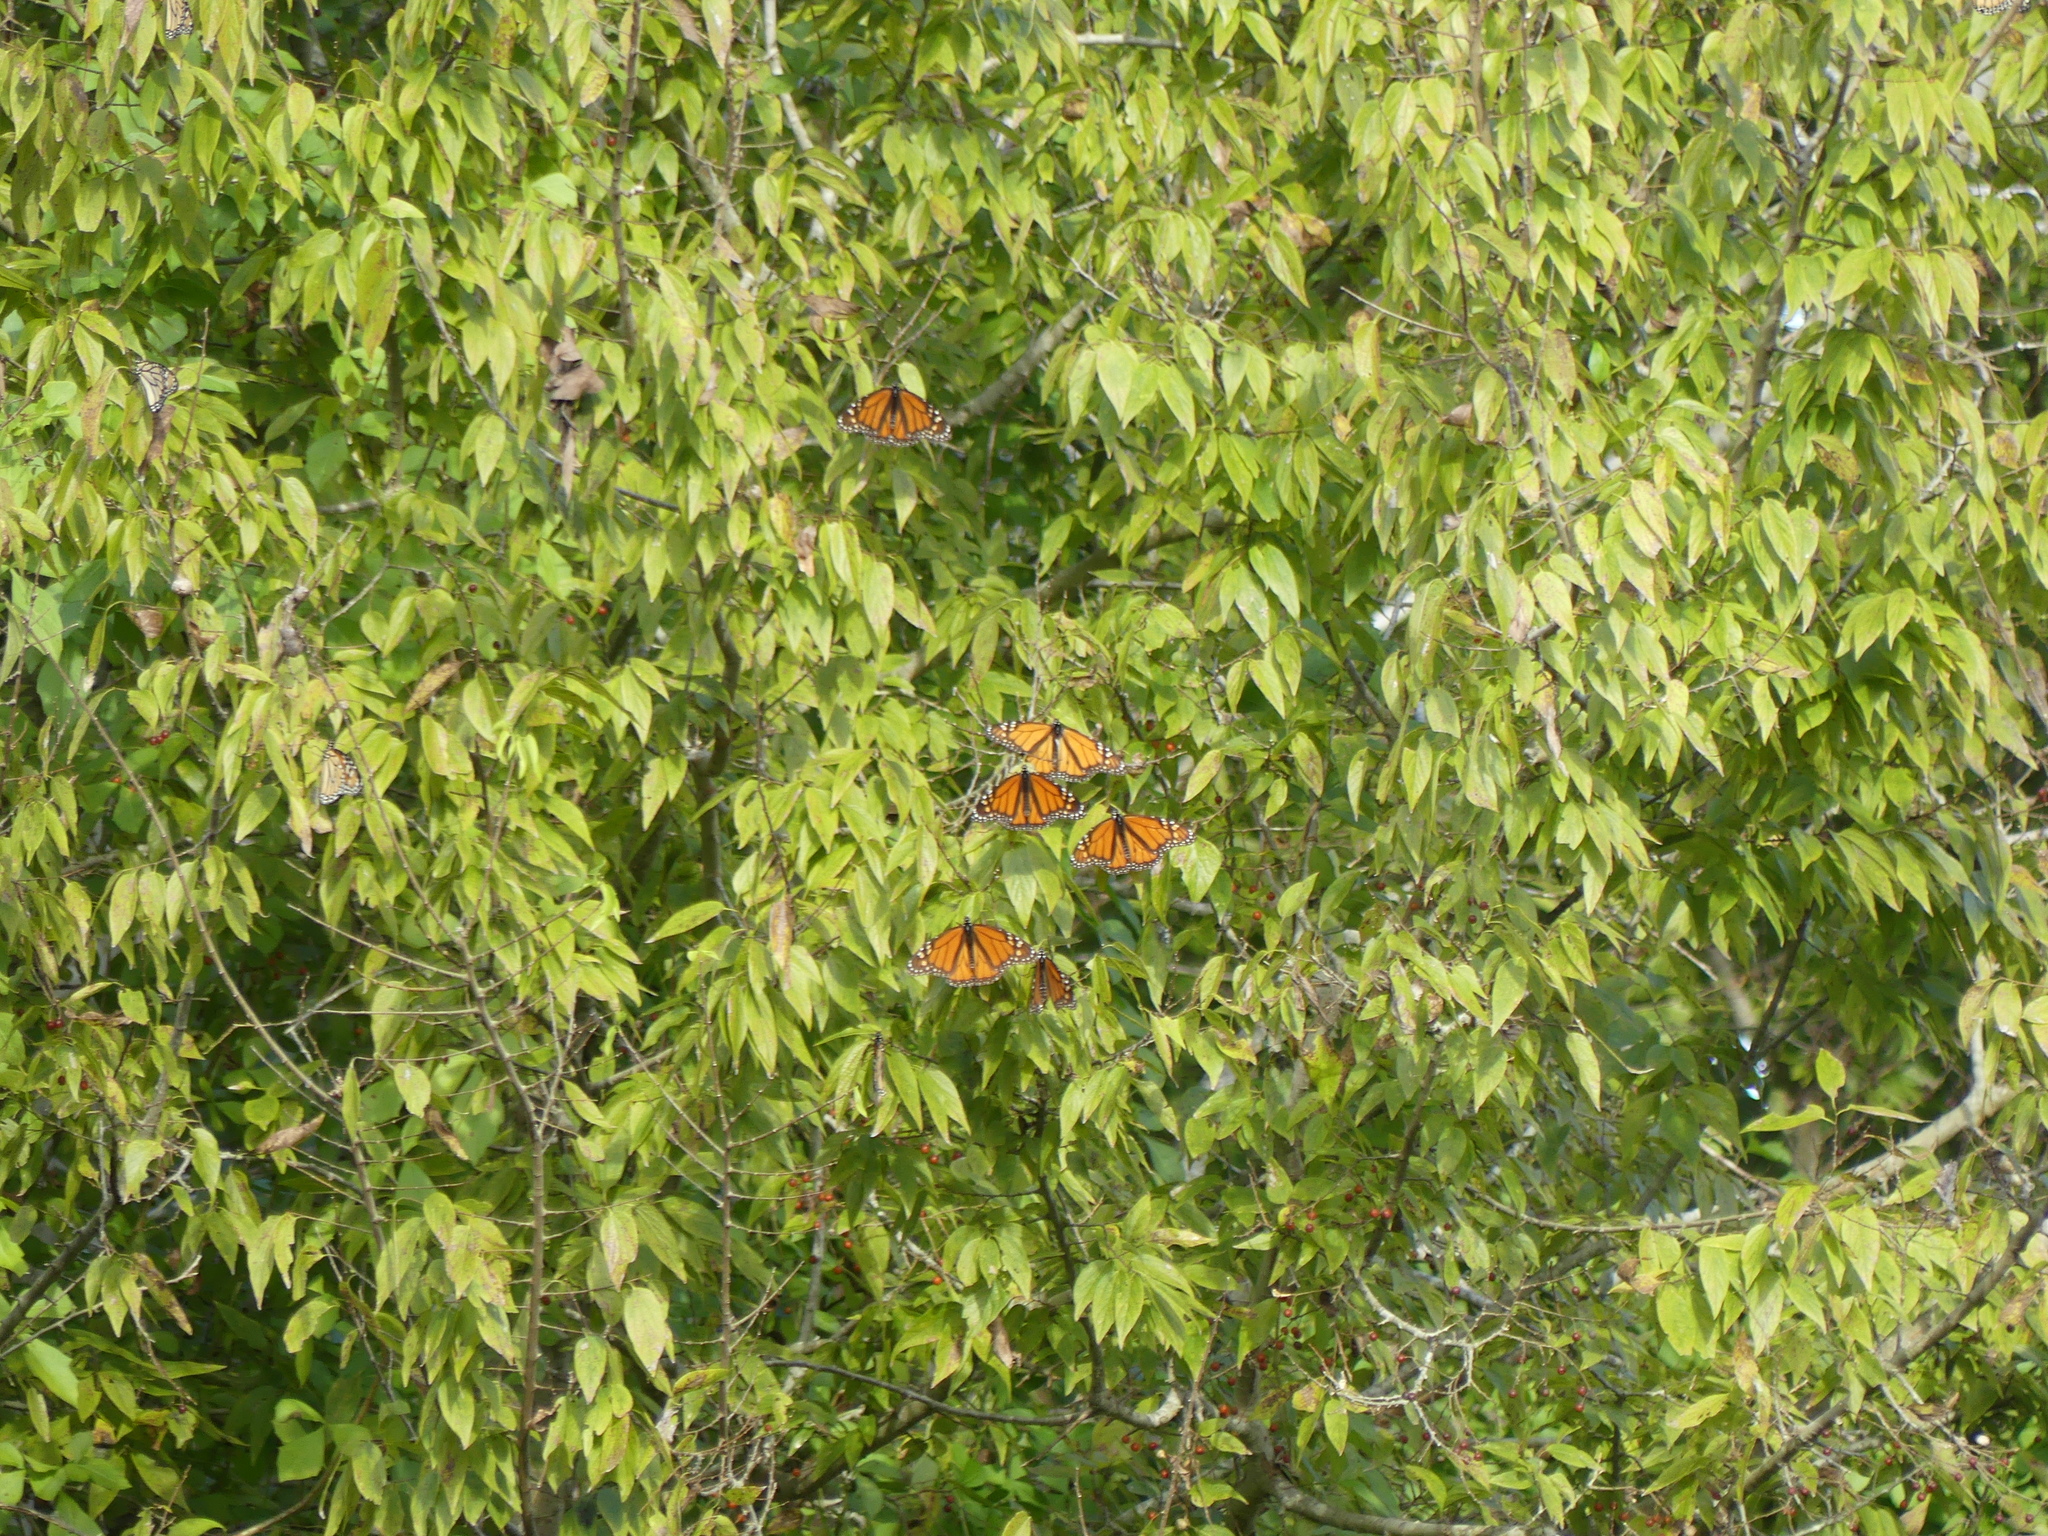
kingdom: Animalia
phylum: Arthropoda
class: Insecta
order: Lepidoptera
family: Nymphalidae
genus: Danaus
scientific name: Danaus plexippus
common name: Monarch
